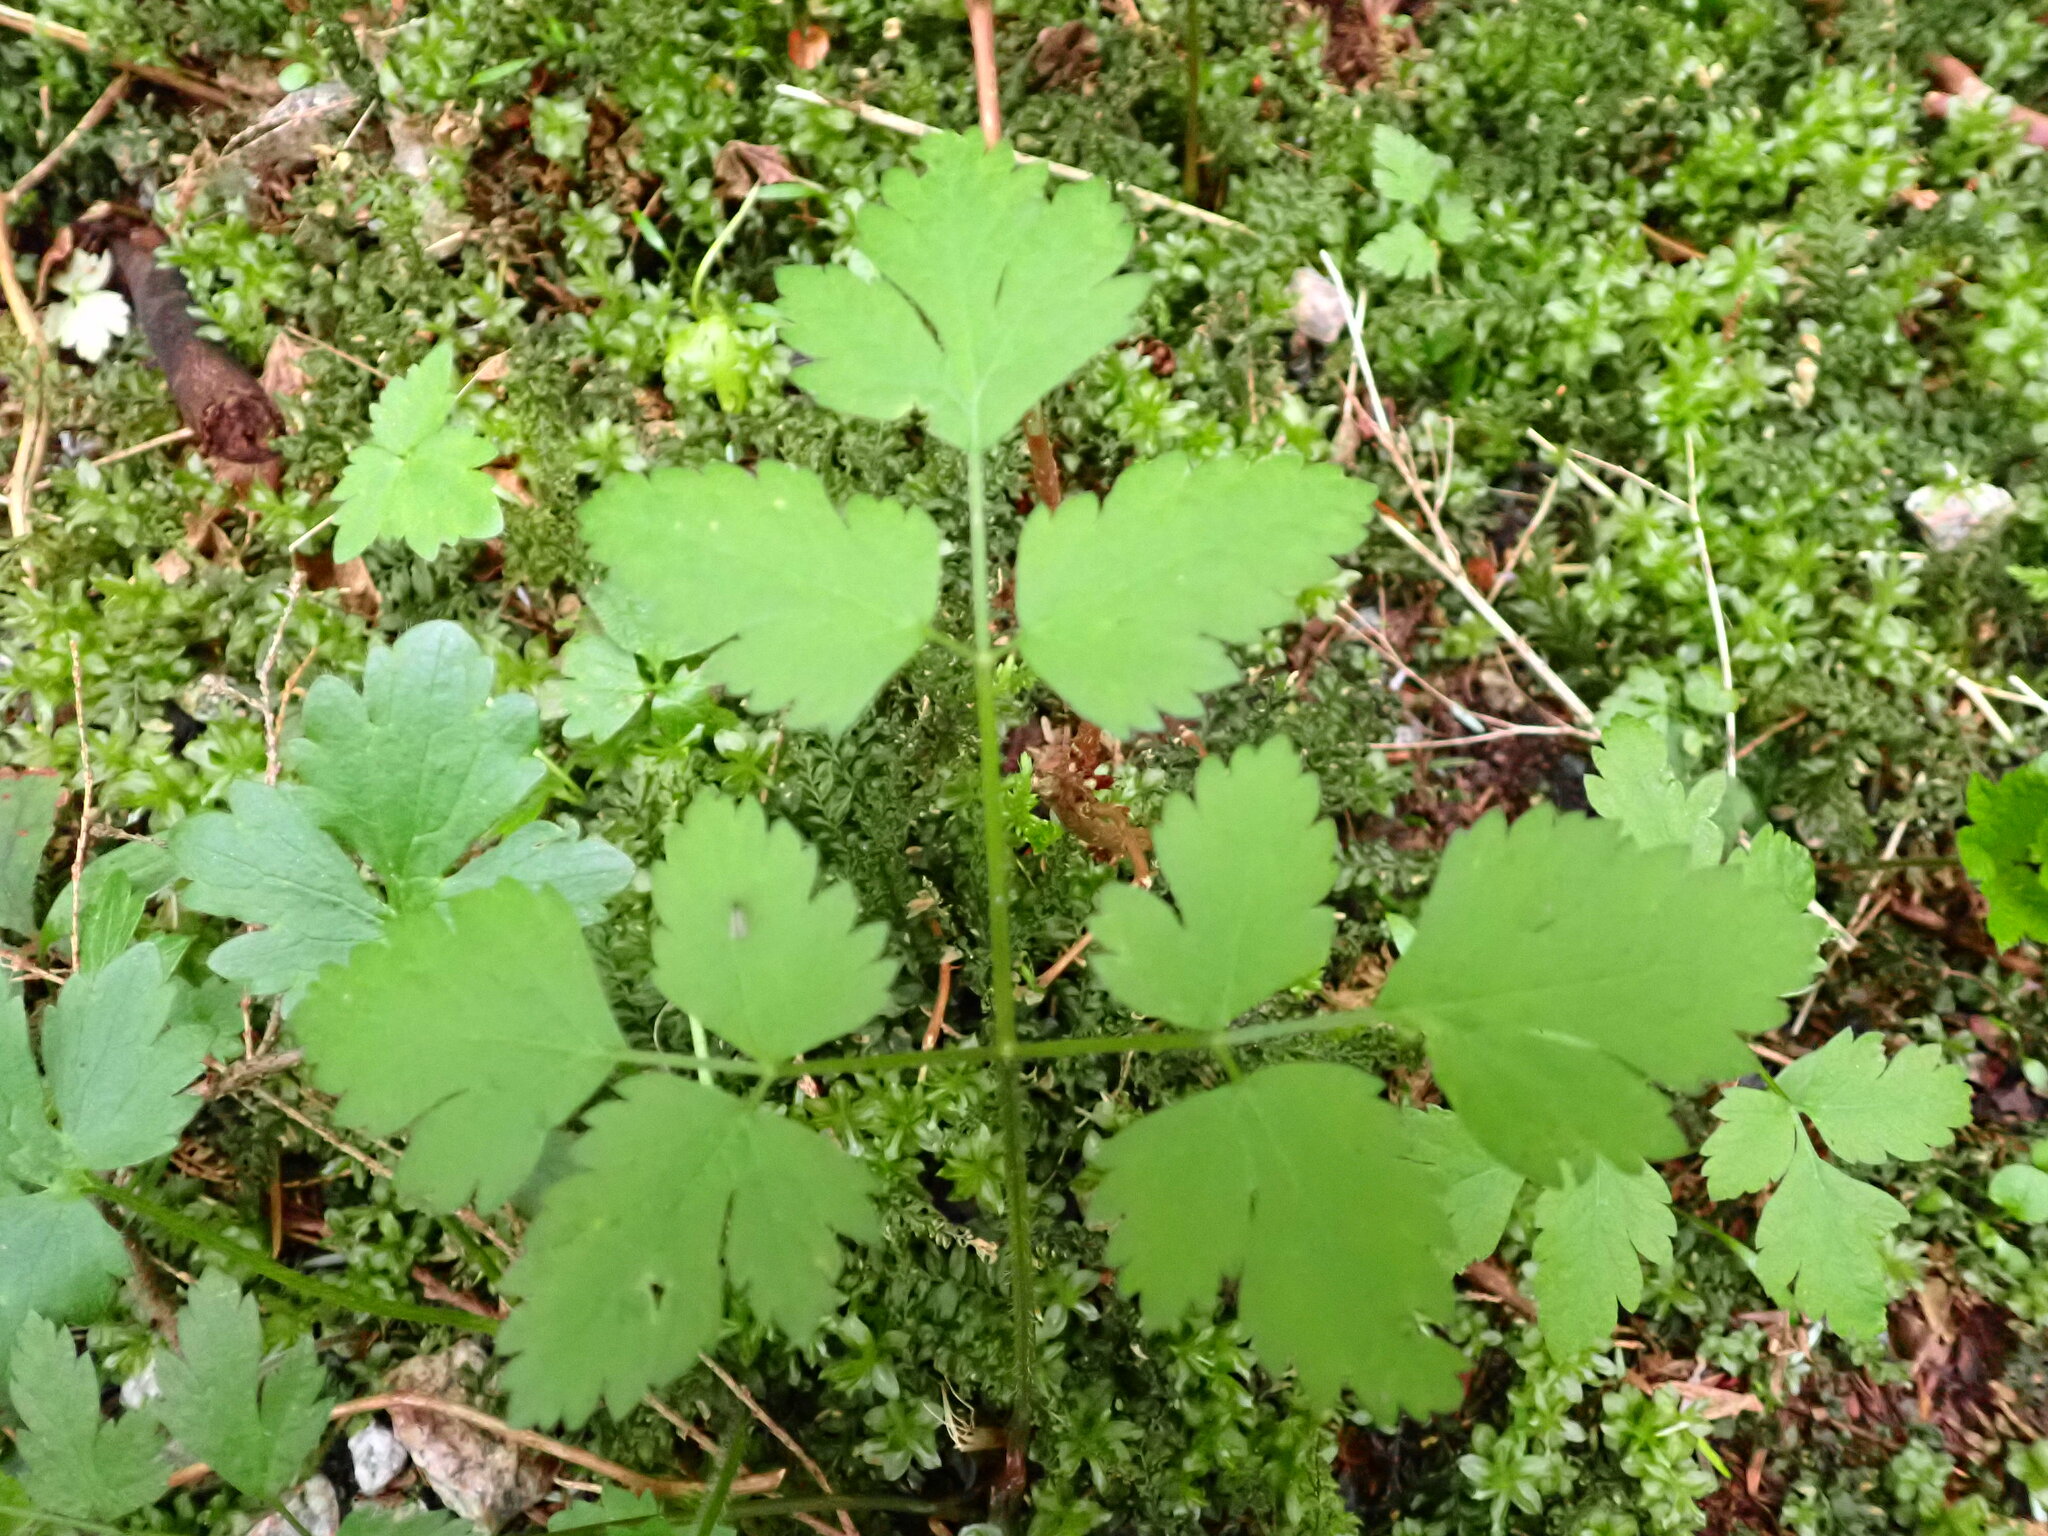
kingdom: Plantae
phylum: Tracheophyta
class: Magnoliopsida
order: Apiales
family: Apiaceae
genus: Osmorhiza
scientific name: Osmorhiza berteroi
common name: Mountain sweet cicely
